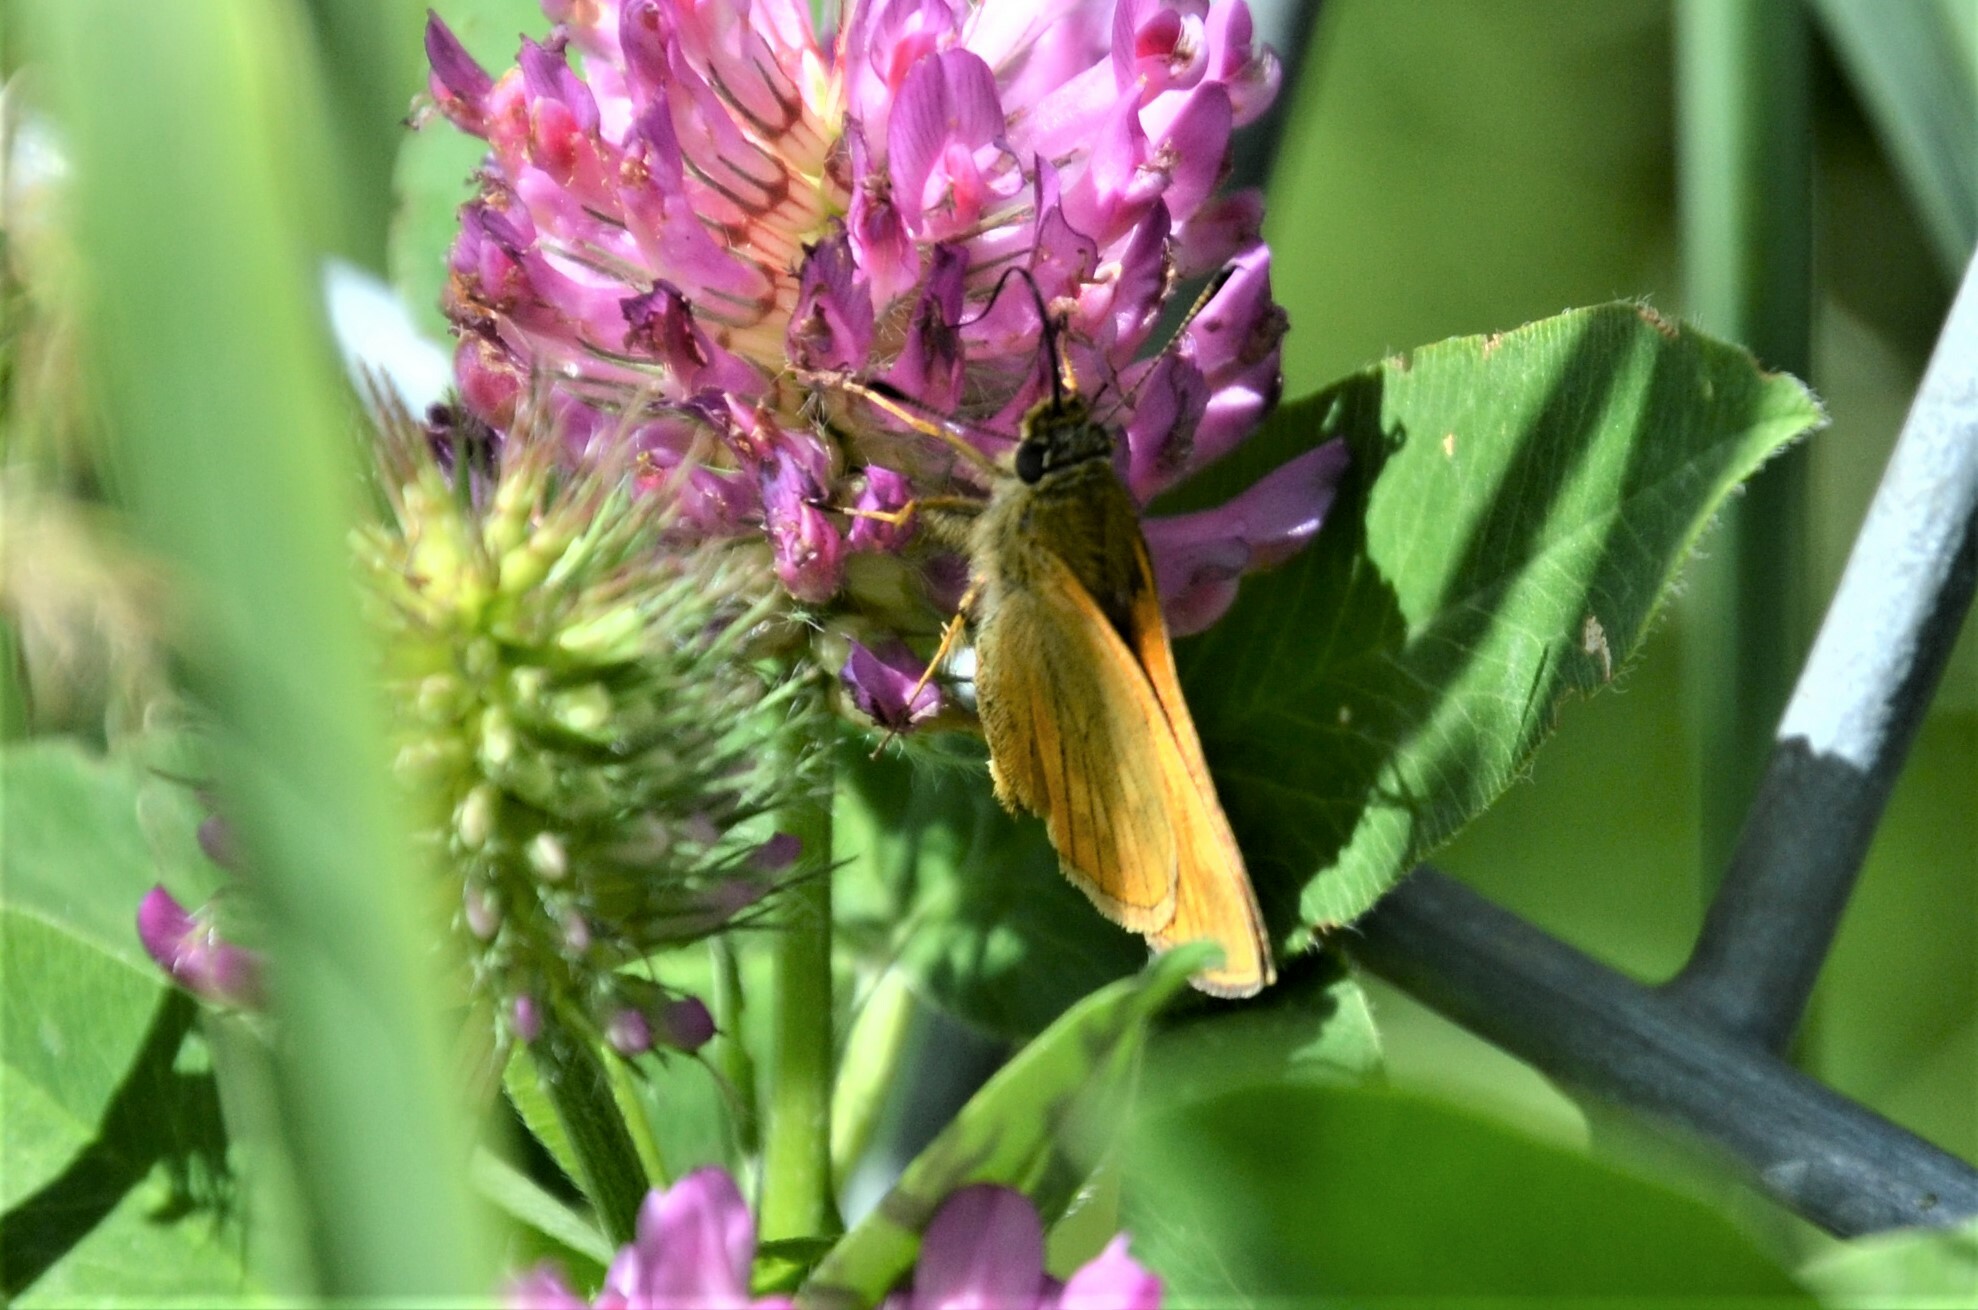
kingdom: Animalia
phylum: Arthropoda
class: Insecta
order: Lepidoptera
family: Hesperiidae
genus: Ochlodes
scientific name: Ochlodes venata
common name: Large skipper
